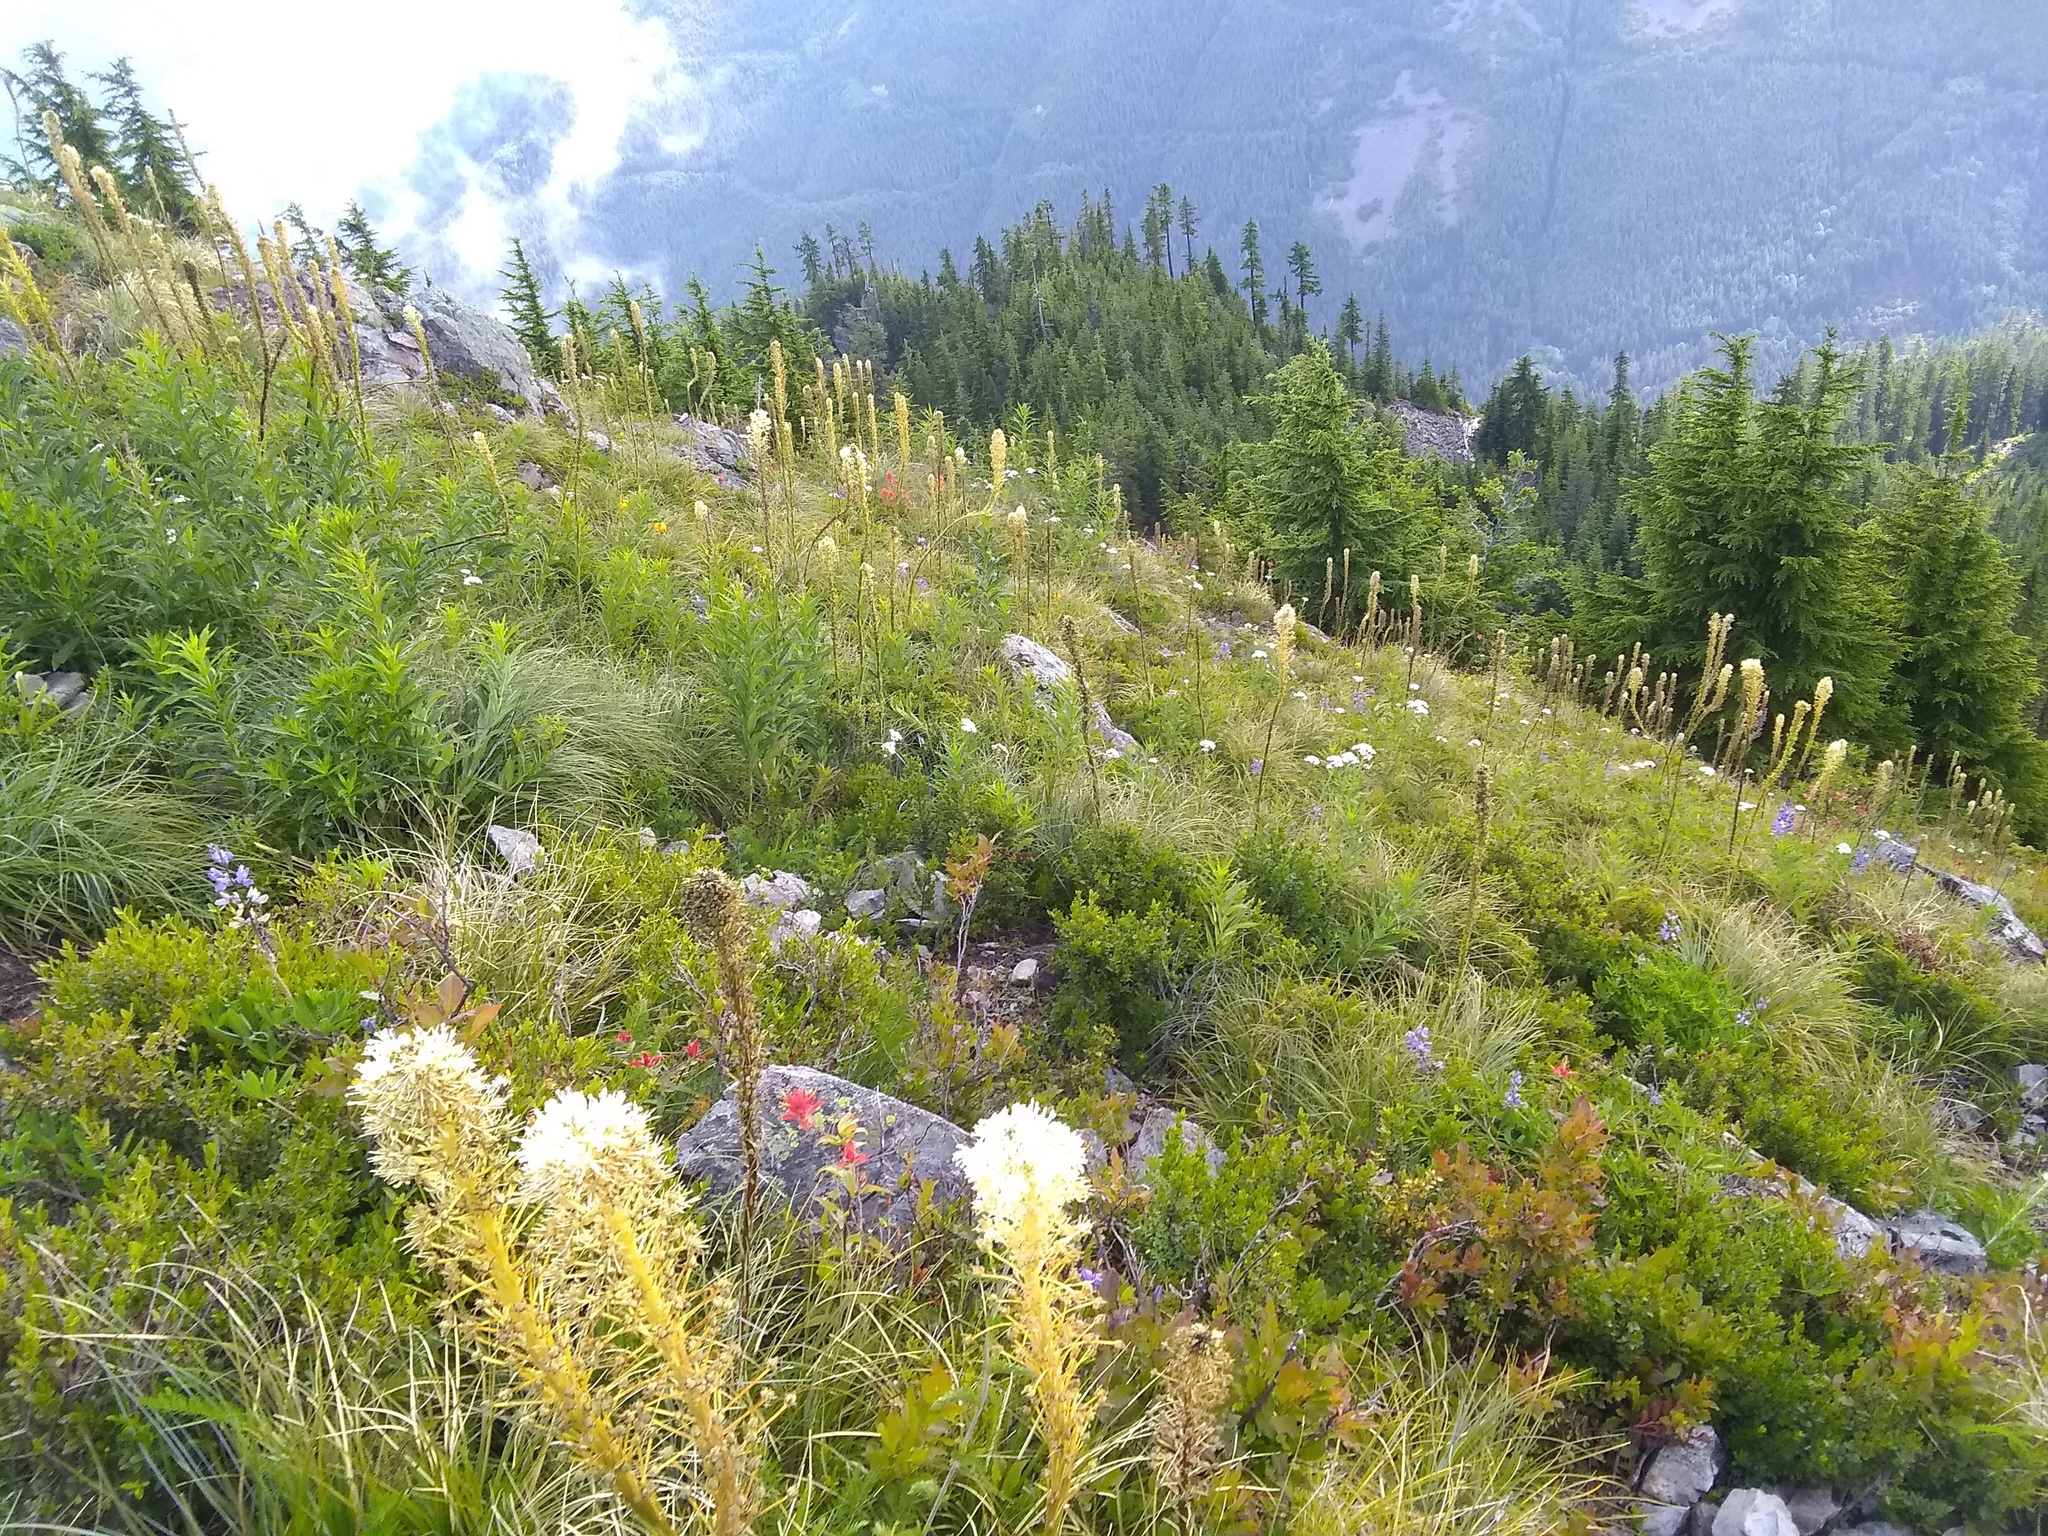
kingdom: Plantae
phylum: Tracheophyta
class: Liliopsida
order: Liliales
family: Melanthiaceae
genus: Xerophyllum
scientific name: Xerophyllum tenax
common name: Bear-grass
